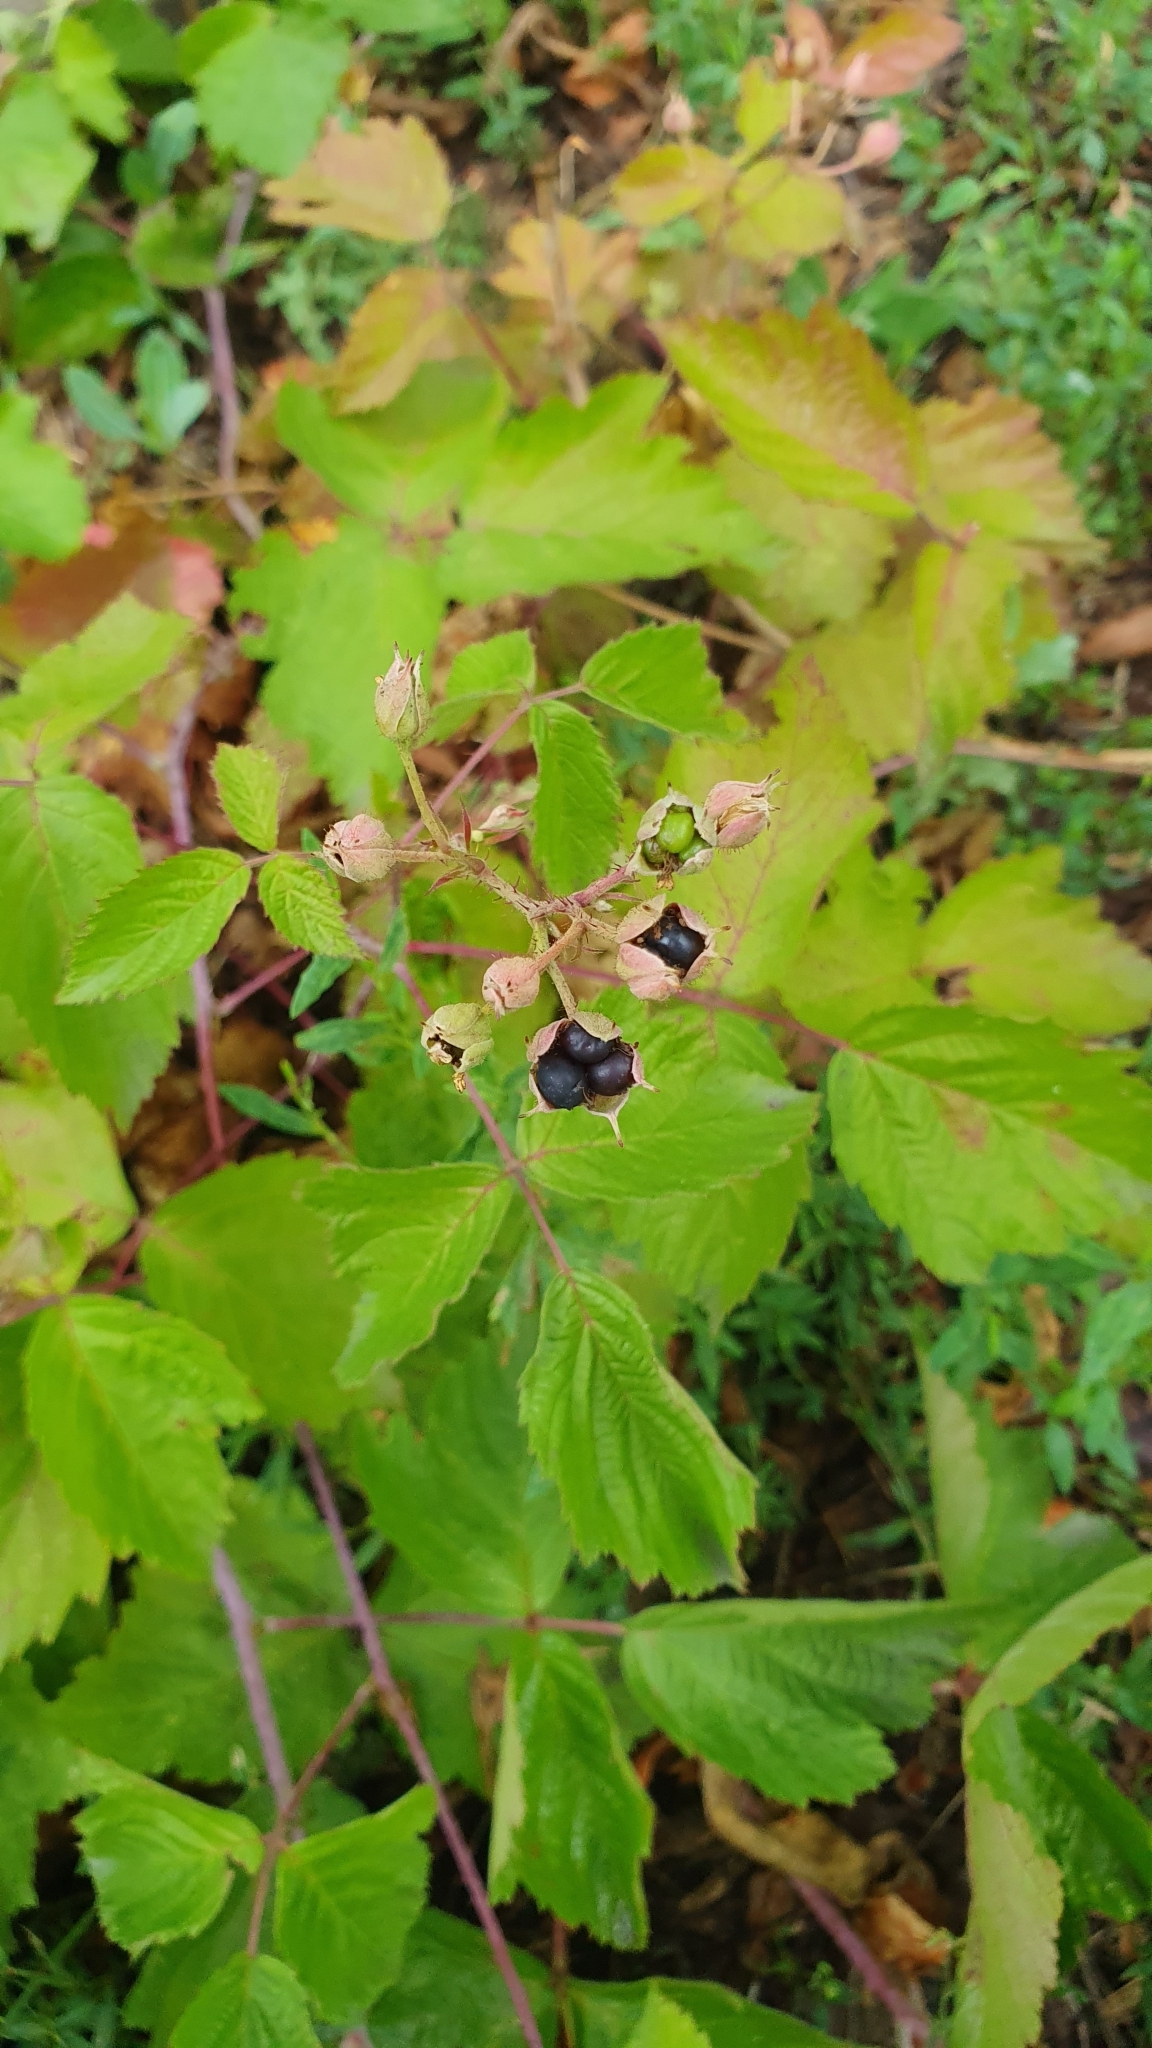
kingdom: Plantae
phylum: Tracheophyta
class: Magnoliopsida
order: Rosales
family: Rosaceae
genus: Rubus
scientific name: Rubus caesius
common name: Dewberry
